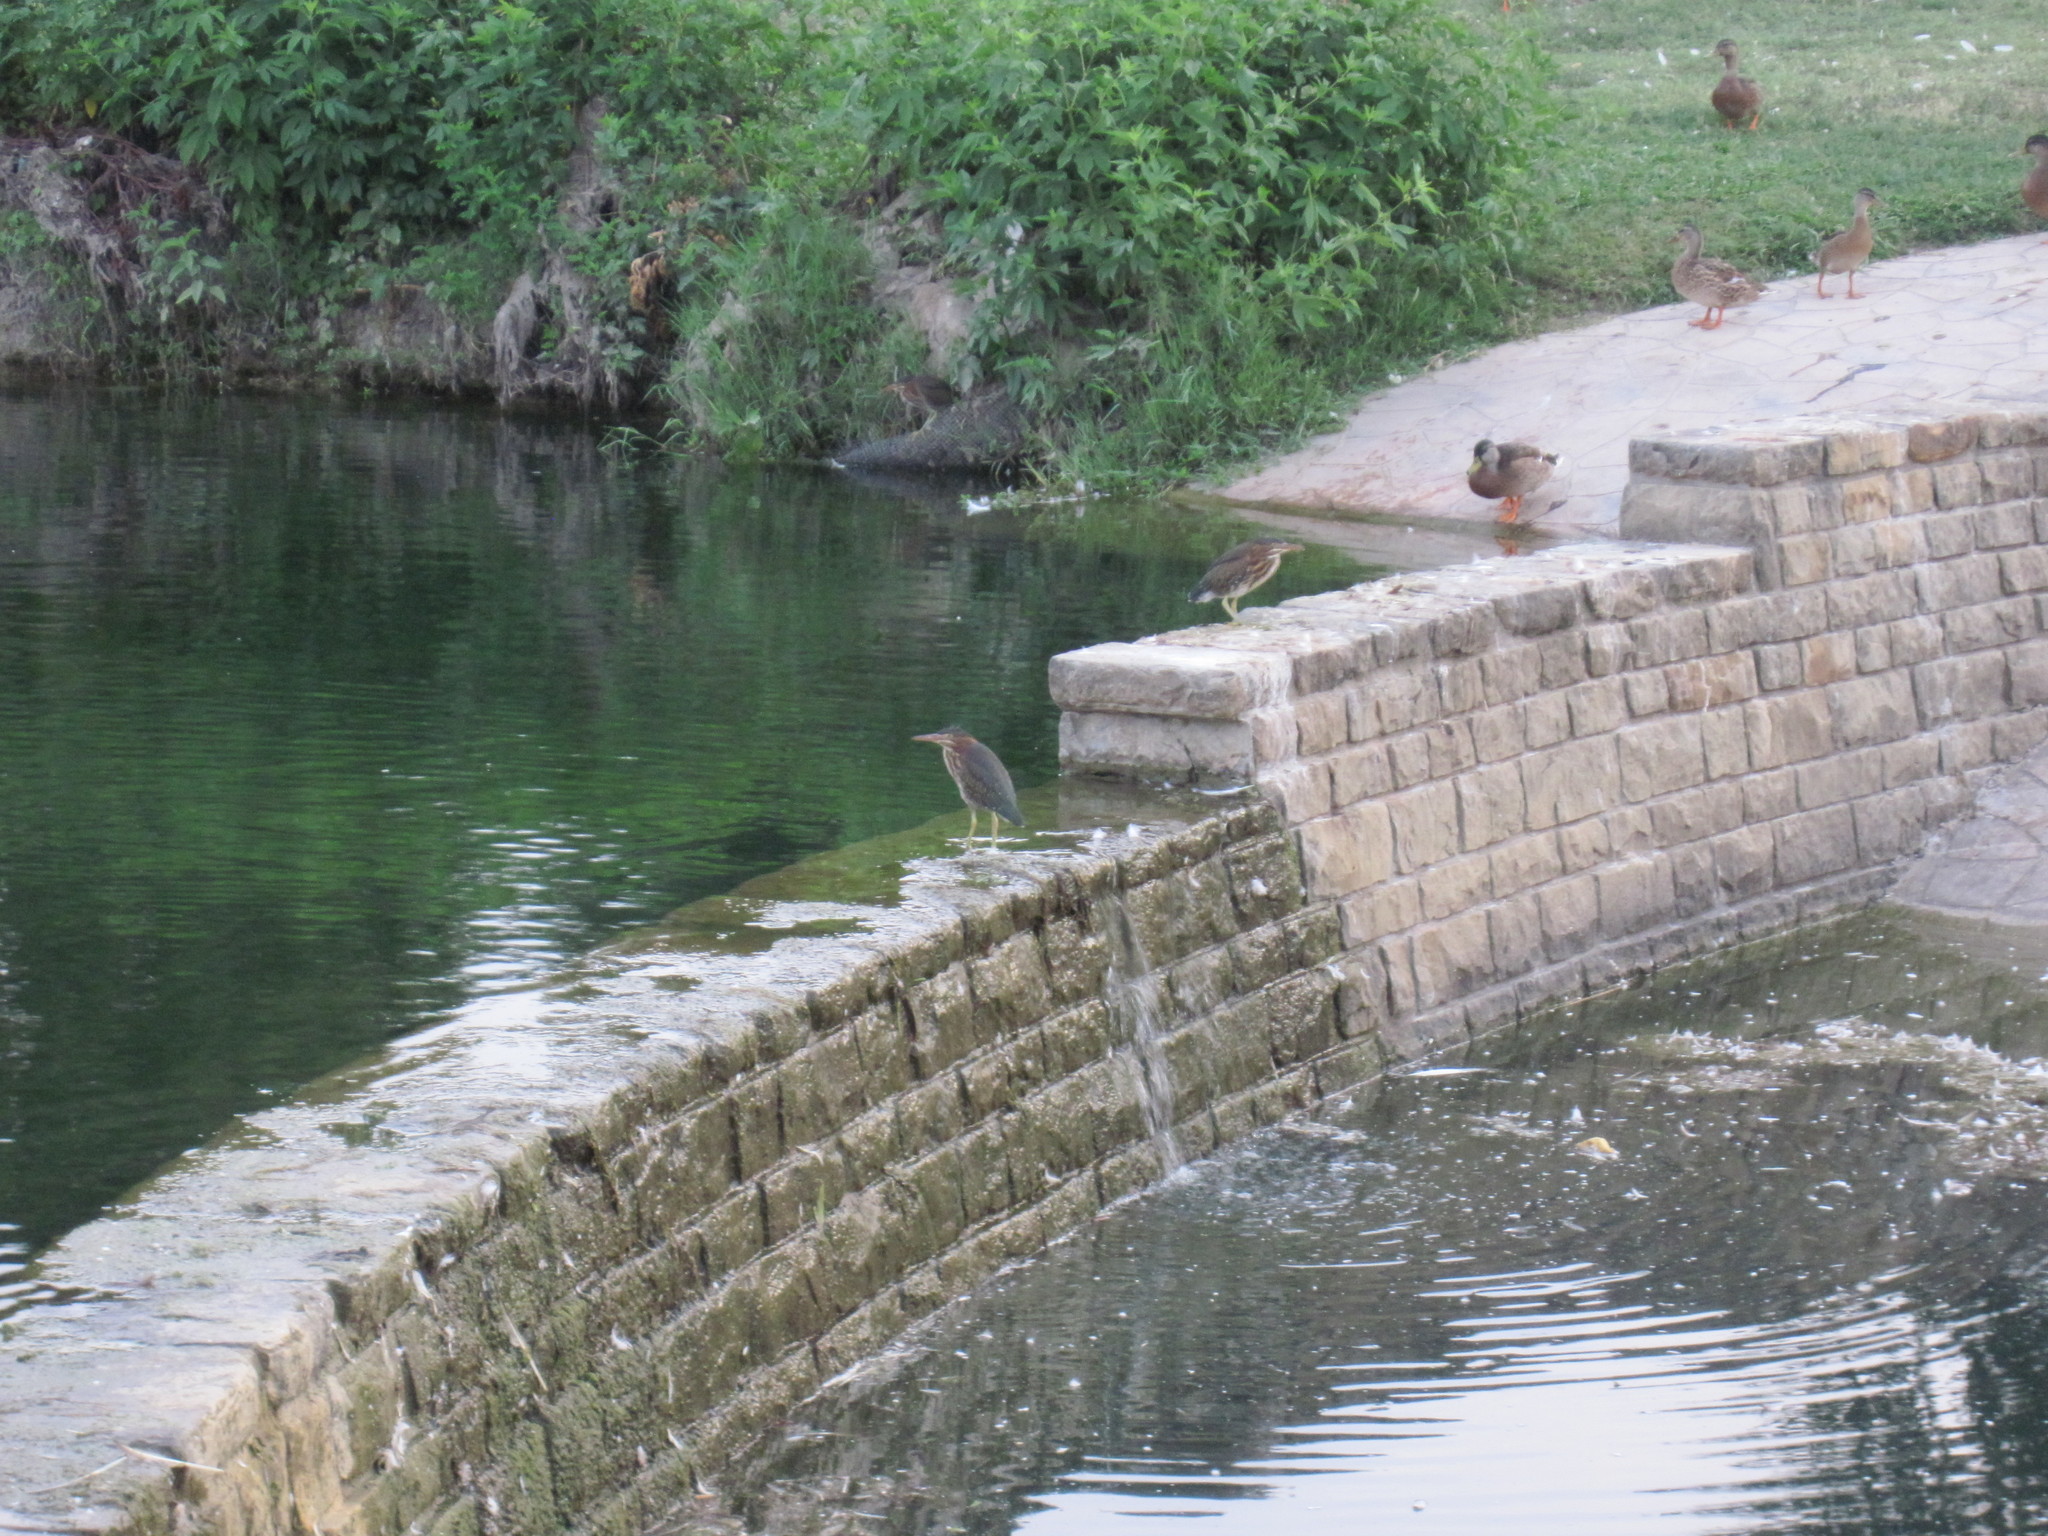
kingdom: Animalia
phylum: Chordata
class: Aves
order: Pelecaniformes
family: Ardeidae
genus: Butorides
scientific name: Butorides virescens
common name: Green heron
